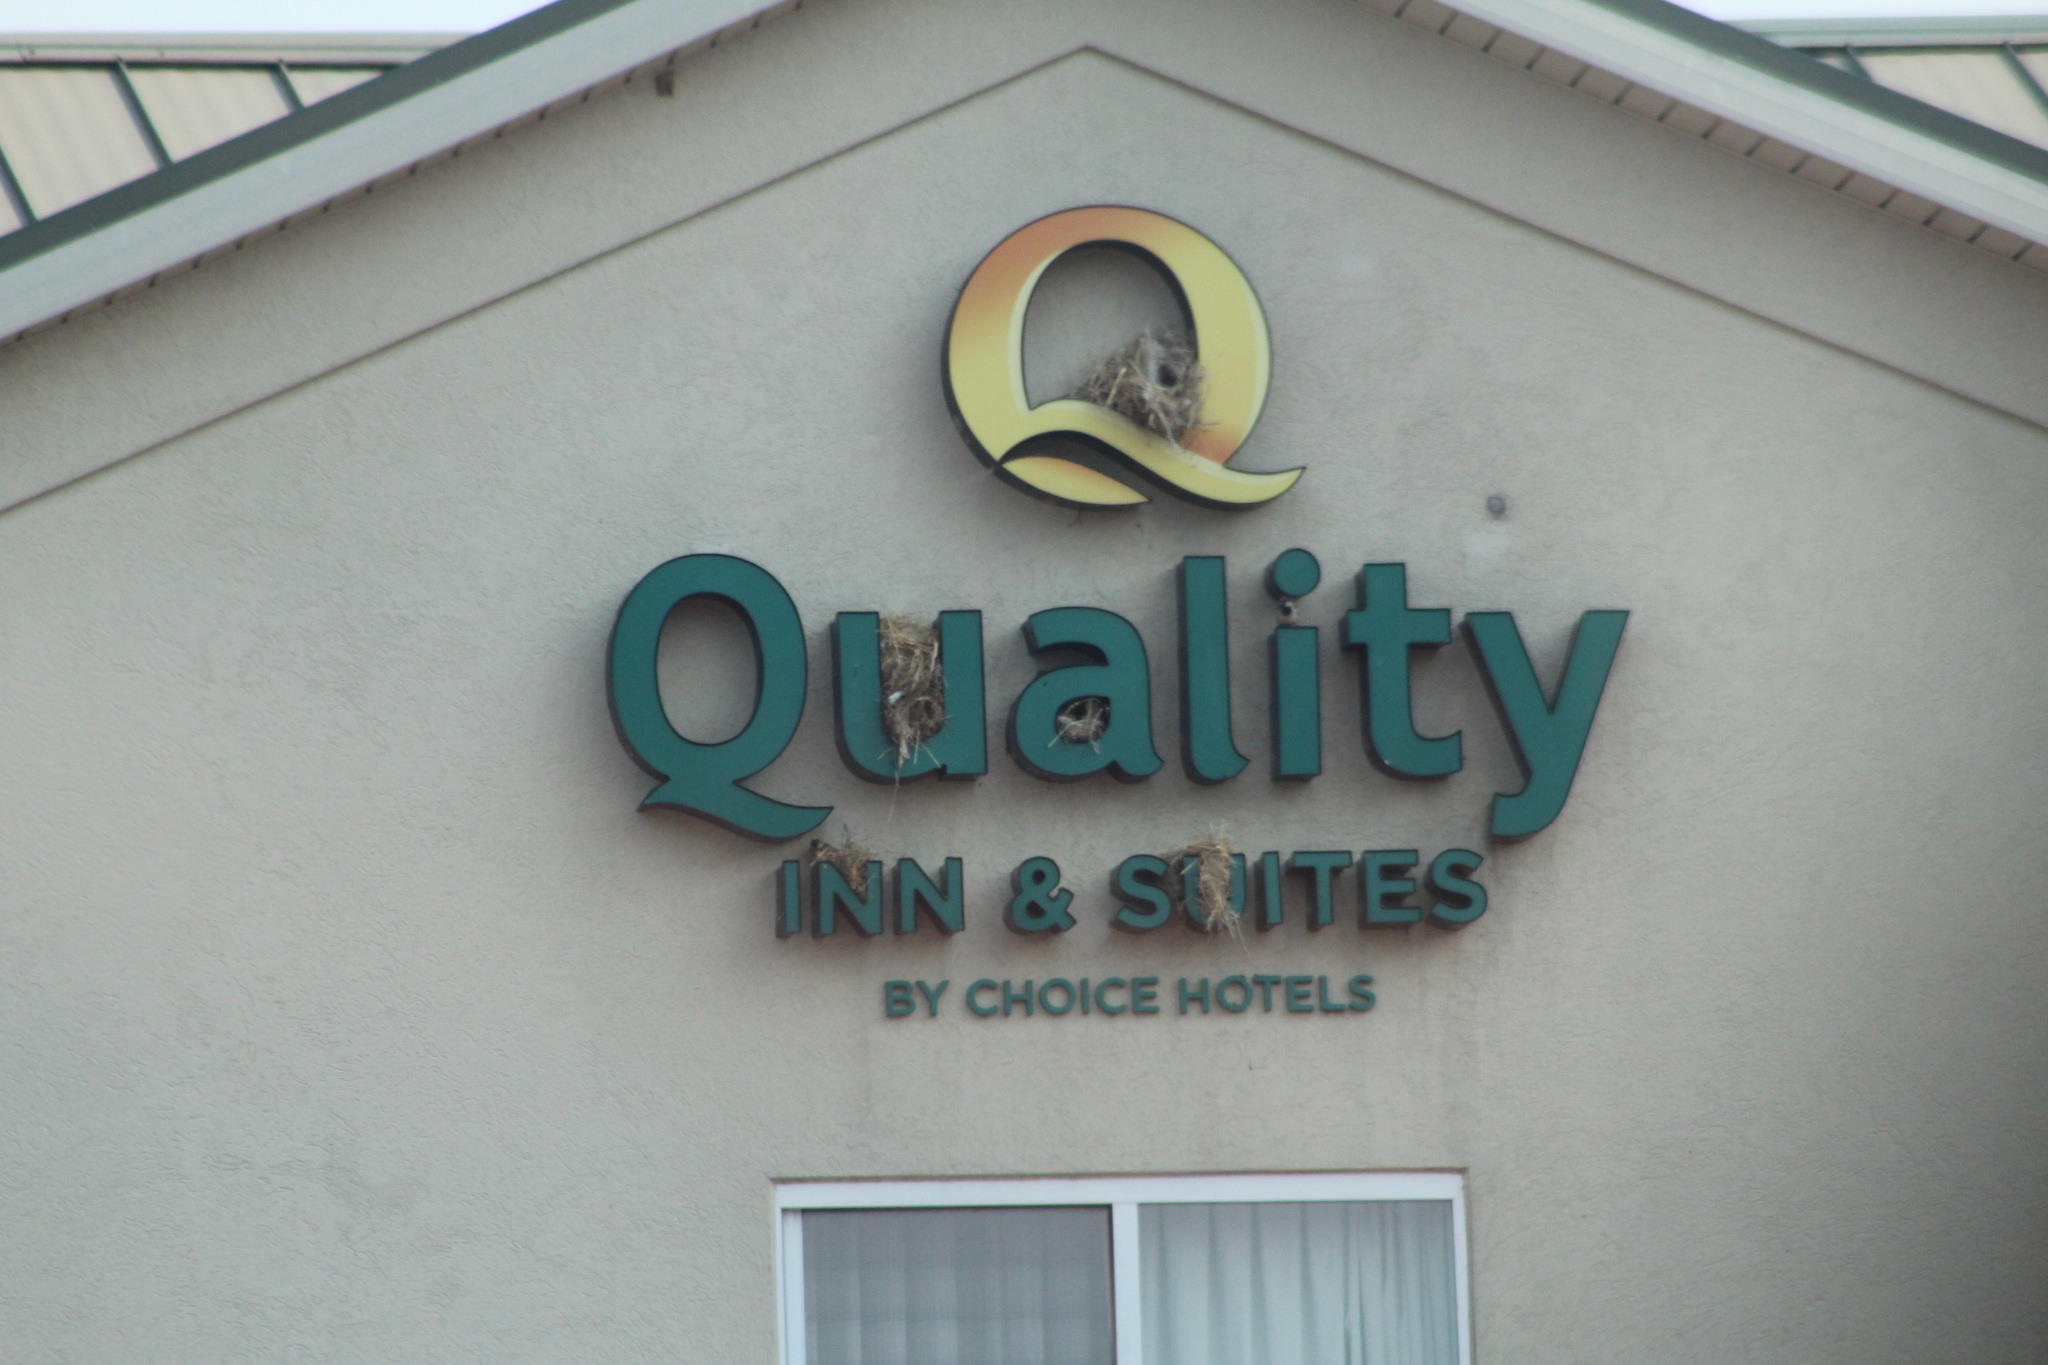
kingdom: Animalia
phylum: Chordata
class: Aves
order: Passeriformes
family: Passeridae
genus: Passer
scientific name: Passer domesticus
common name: House sparrow
